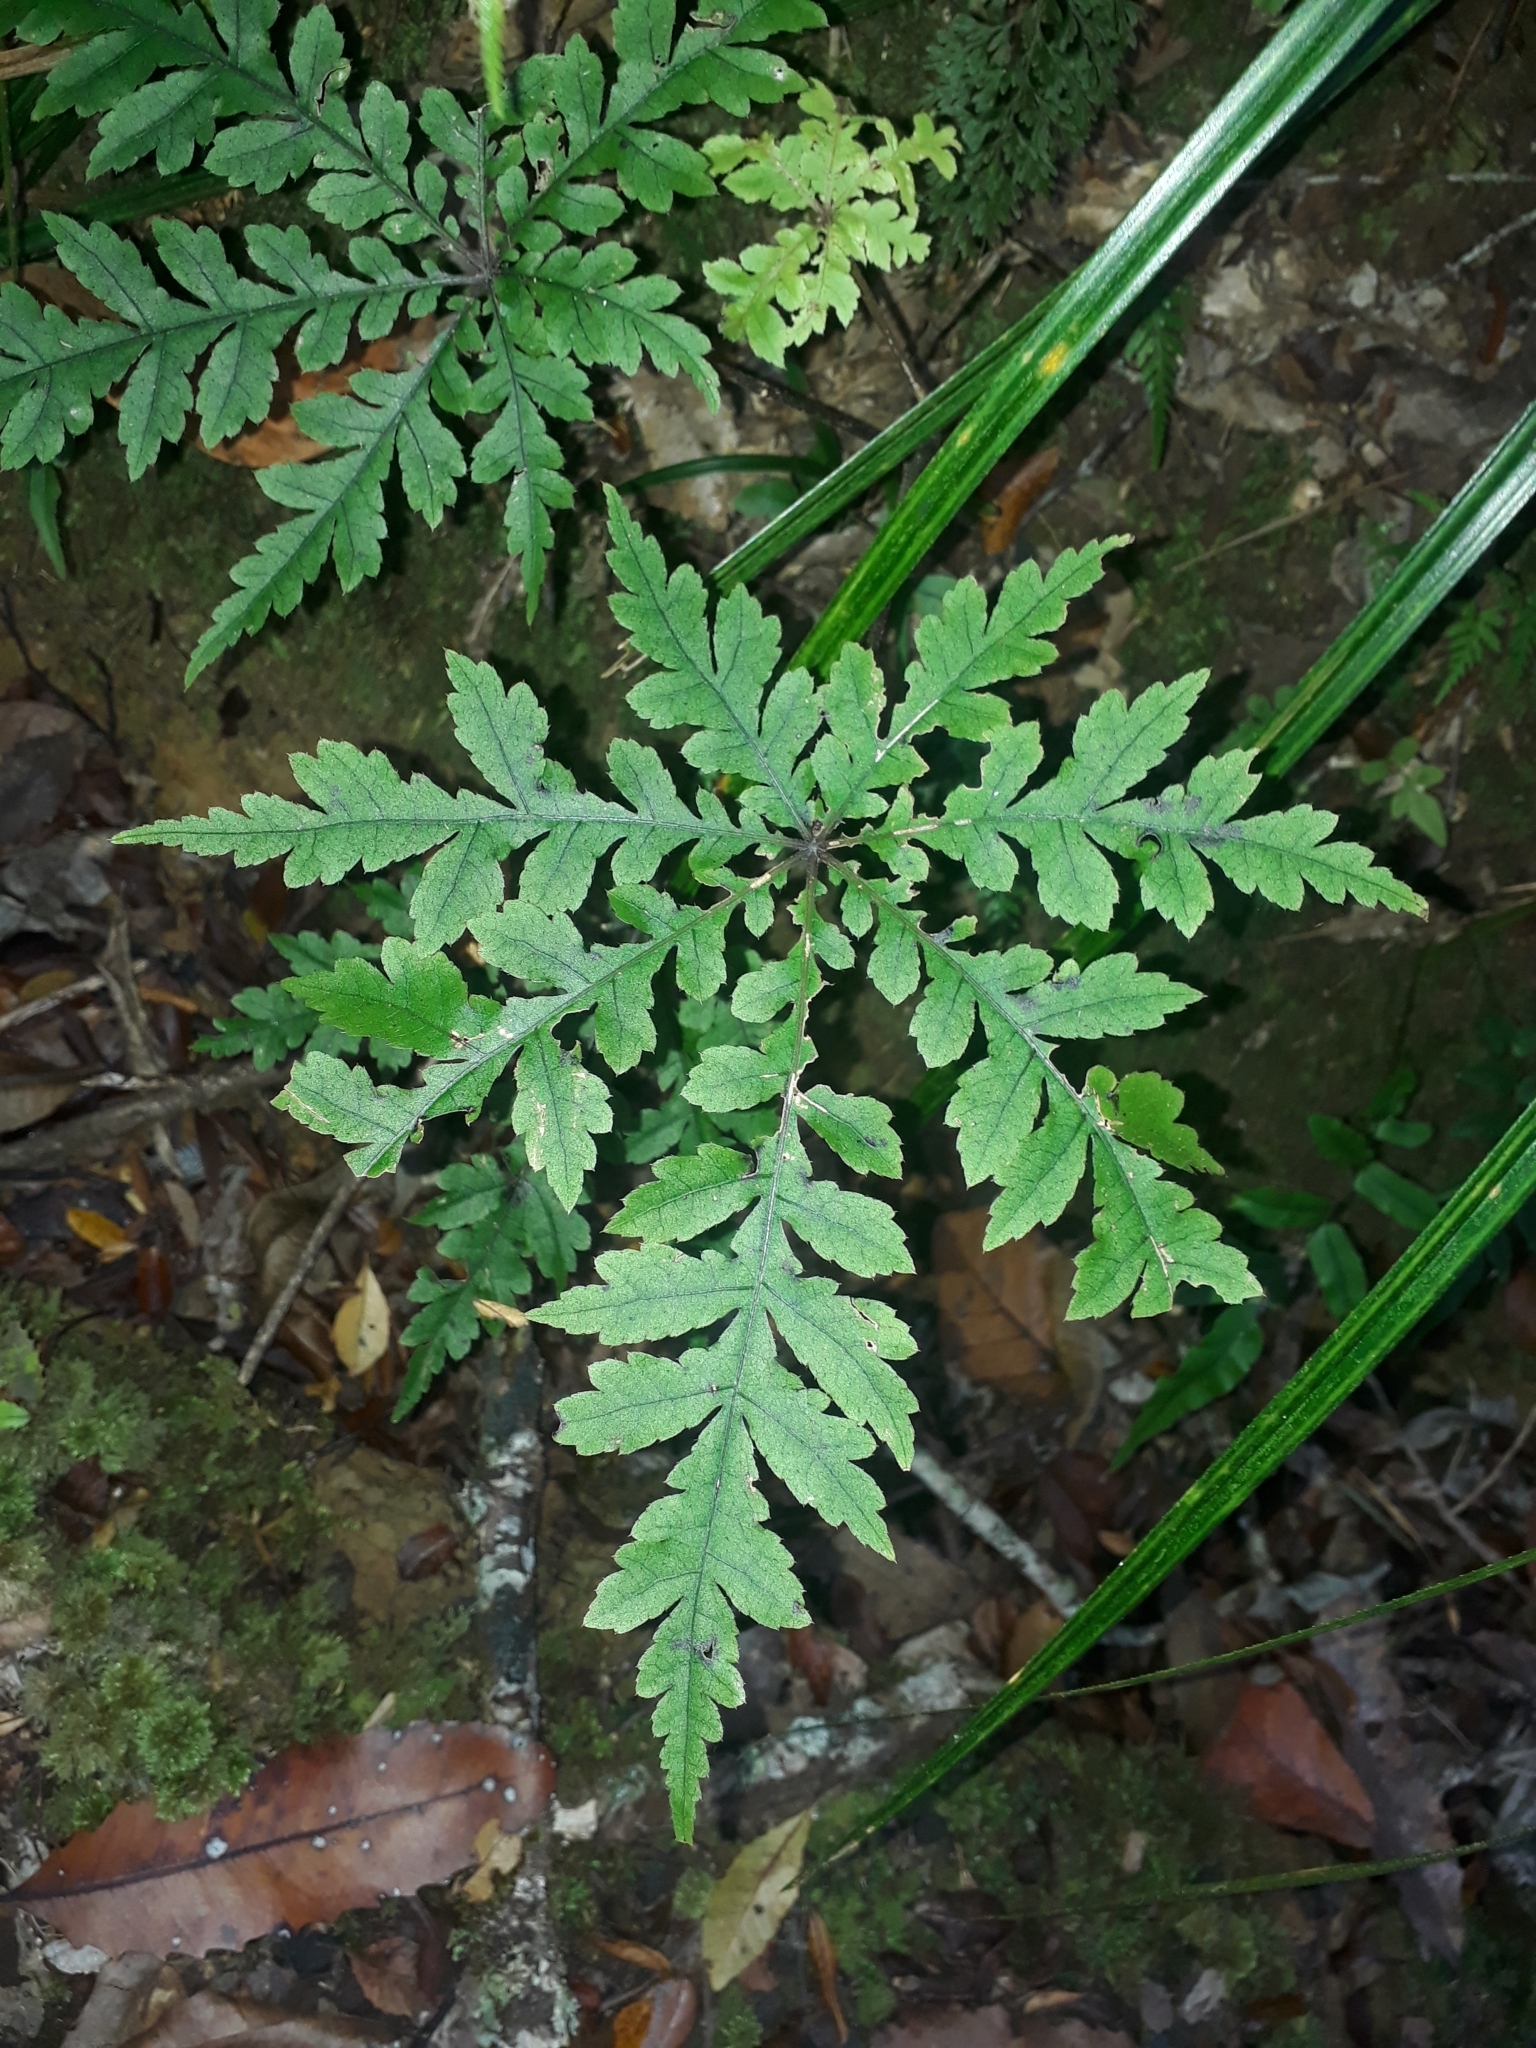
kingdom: Plantae
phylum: Tracheophyta
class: Magnoliopsida
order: Apiales
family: Araliaceae
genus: Schefflera
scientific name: Schefflera digitata
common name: Pate
